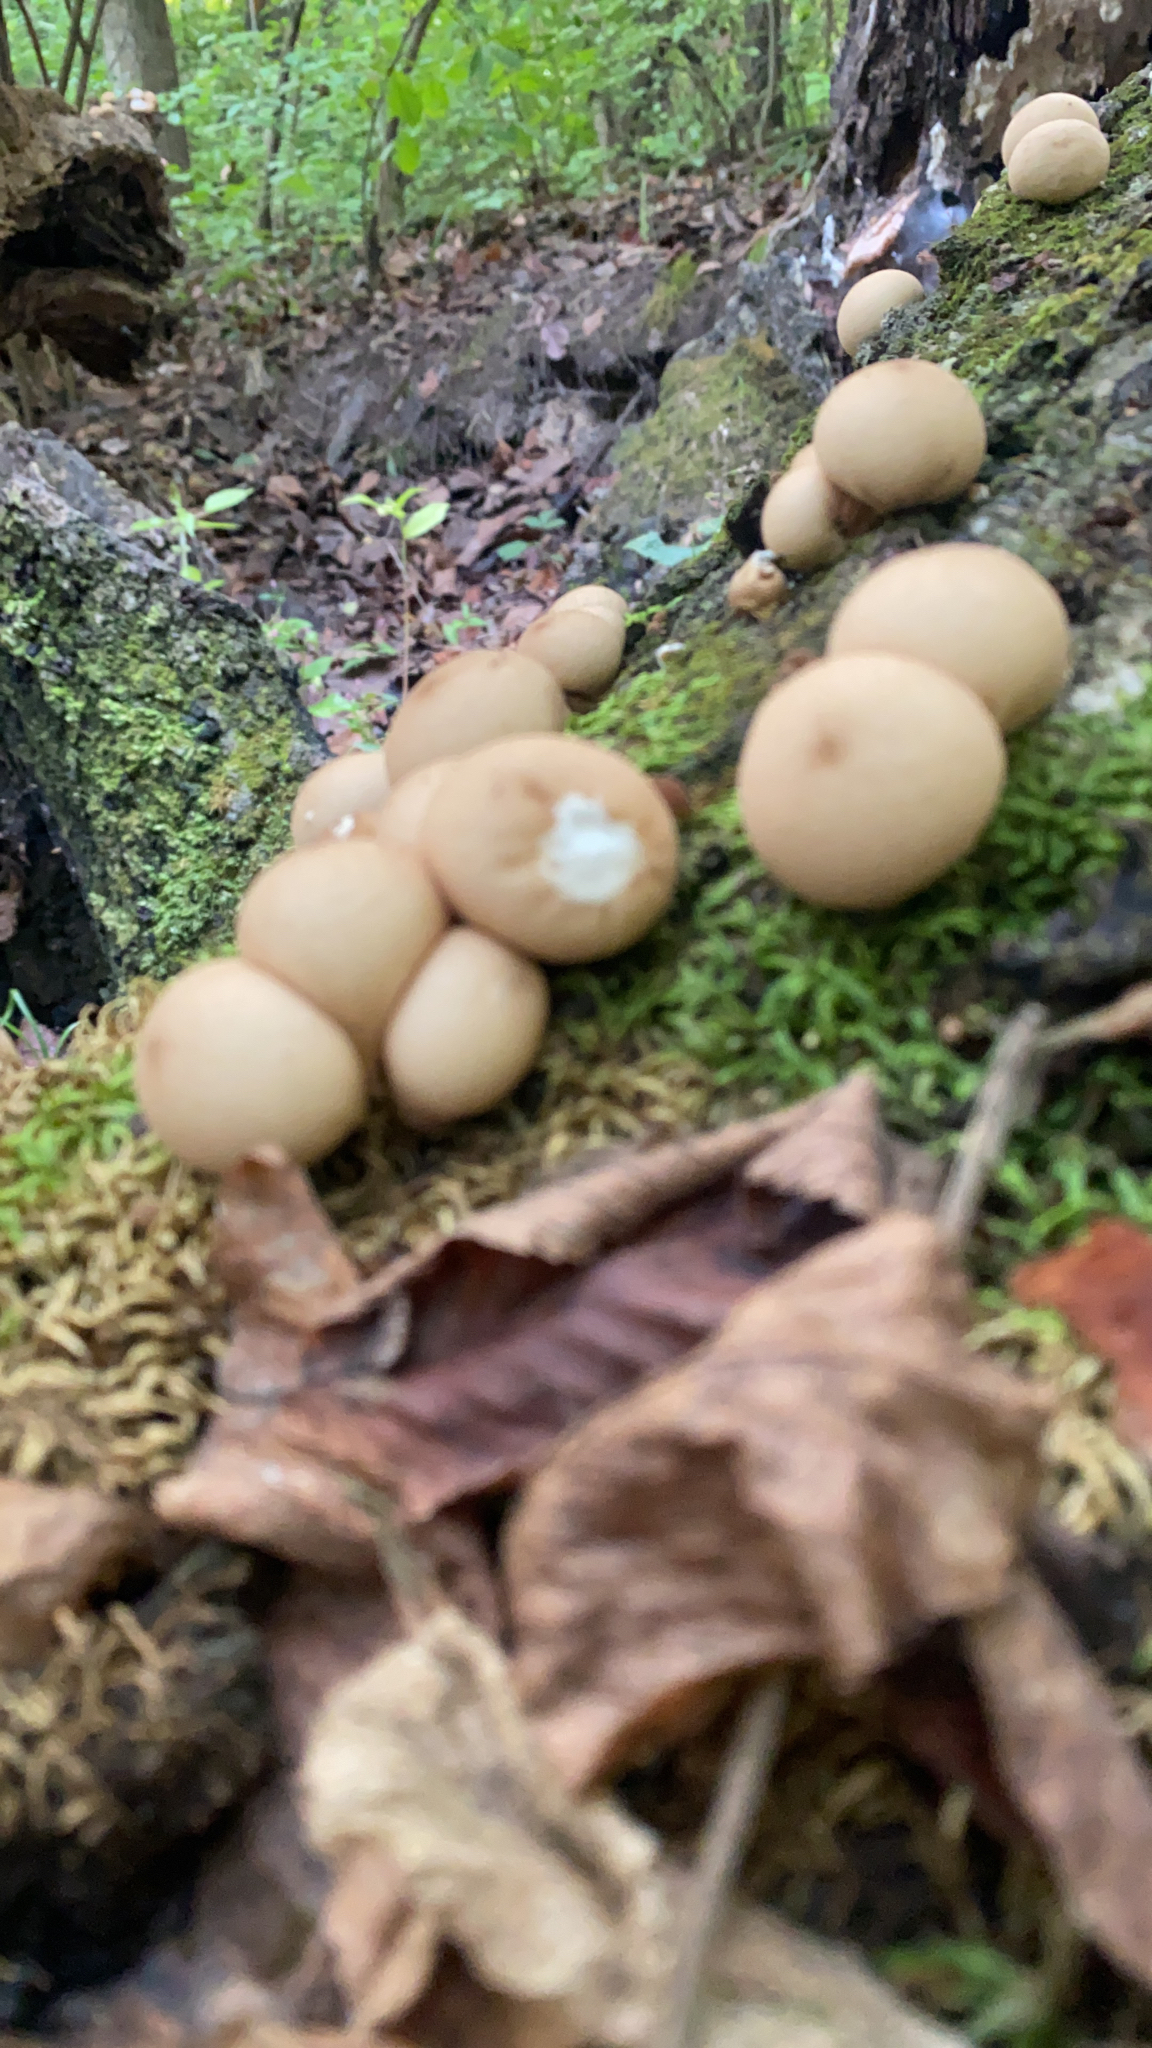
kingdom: Fungi
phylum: Basidiomycota
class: Agaricomycetes
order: Agaricales
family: Lycoperdaceae
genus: Apioperdon
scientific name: Apioperdon pyriforme
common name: Pear-shaped puffball
